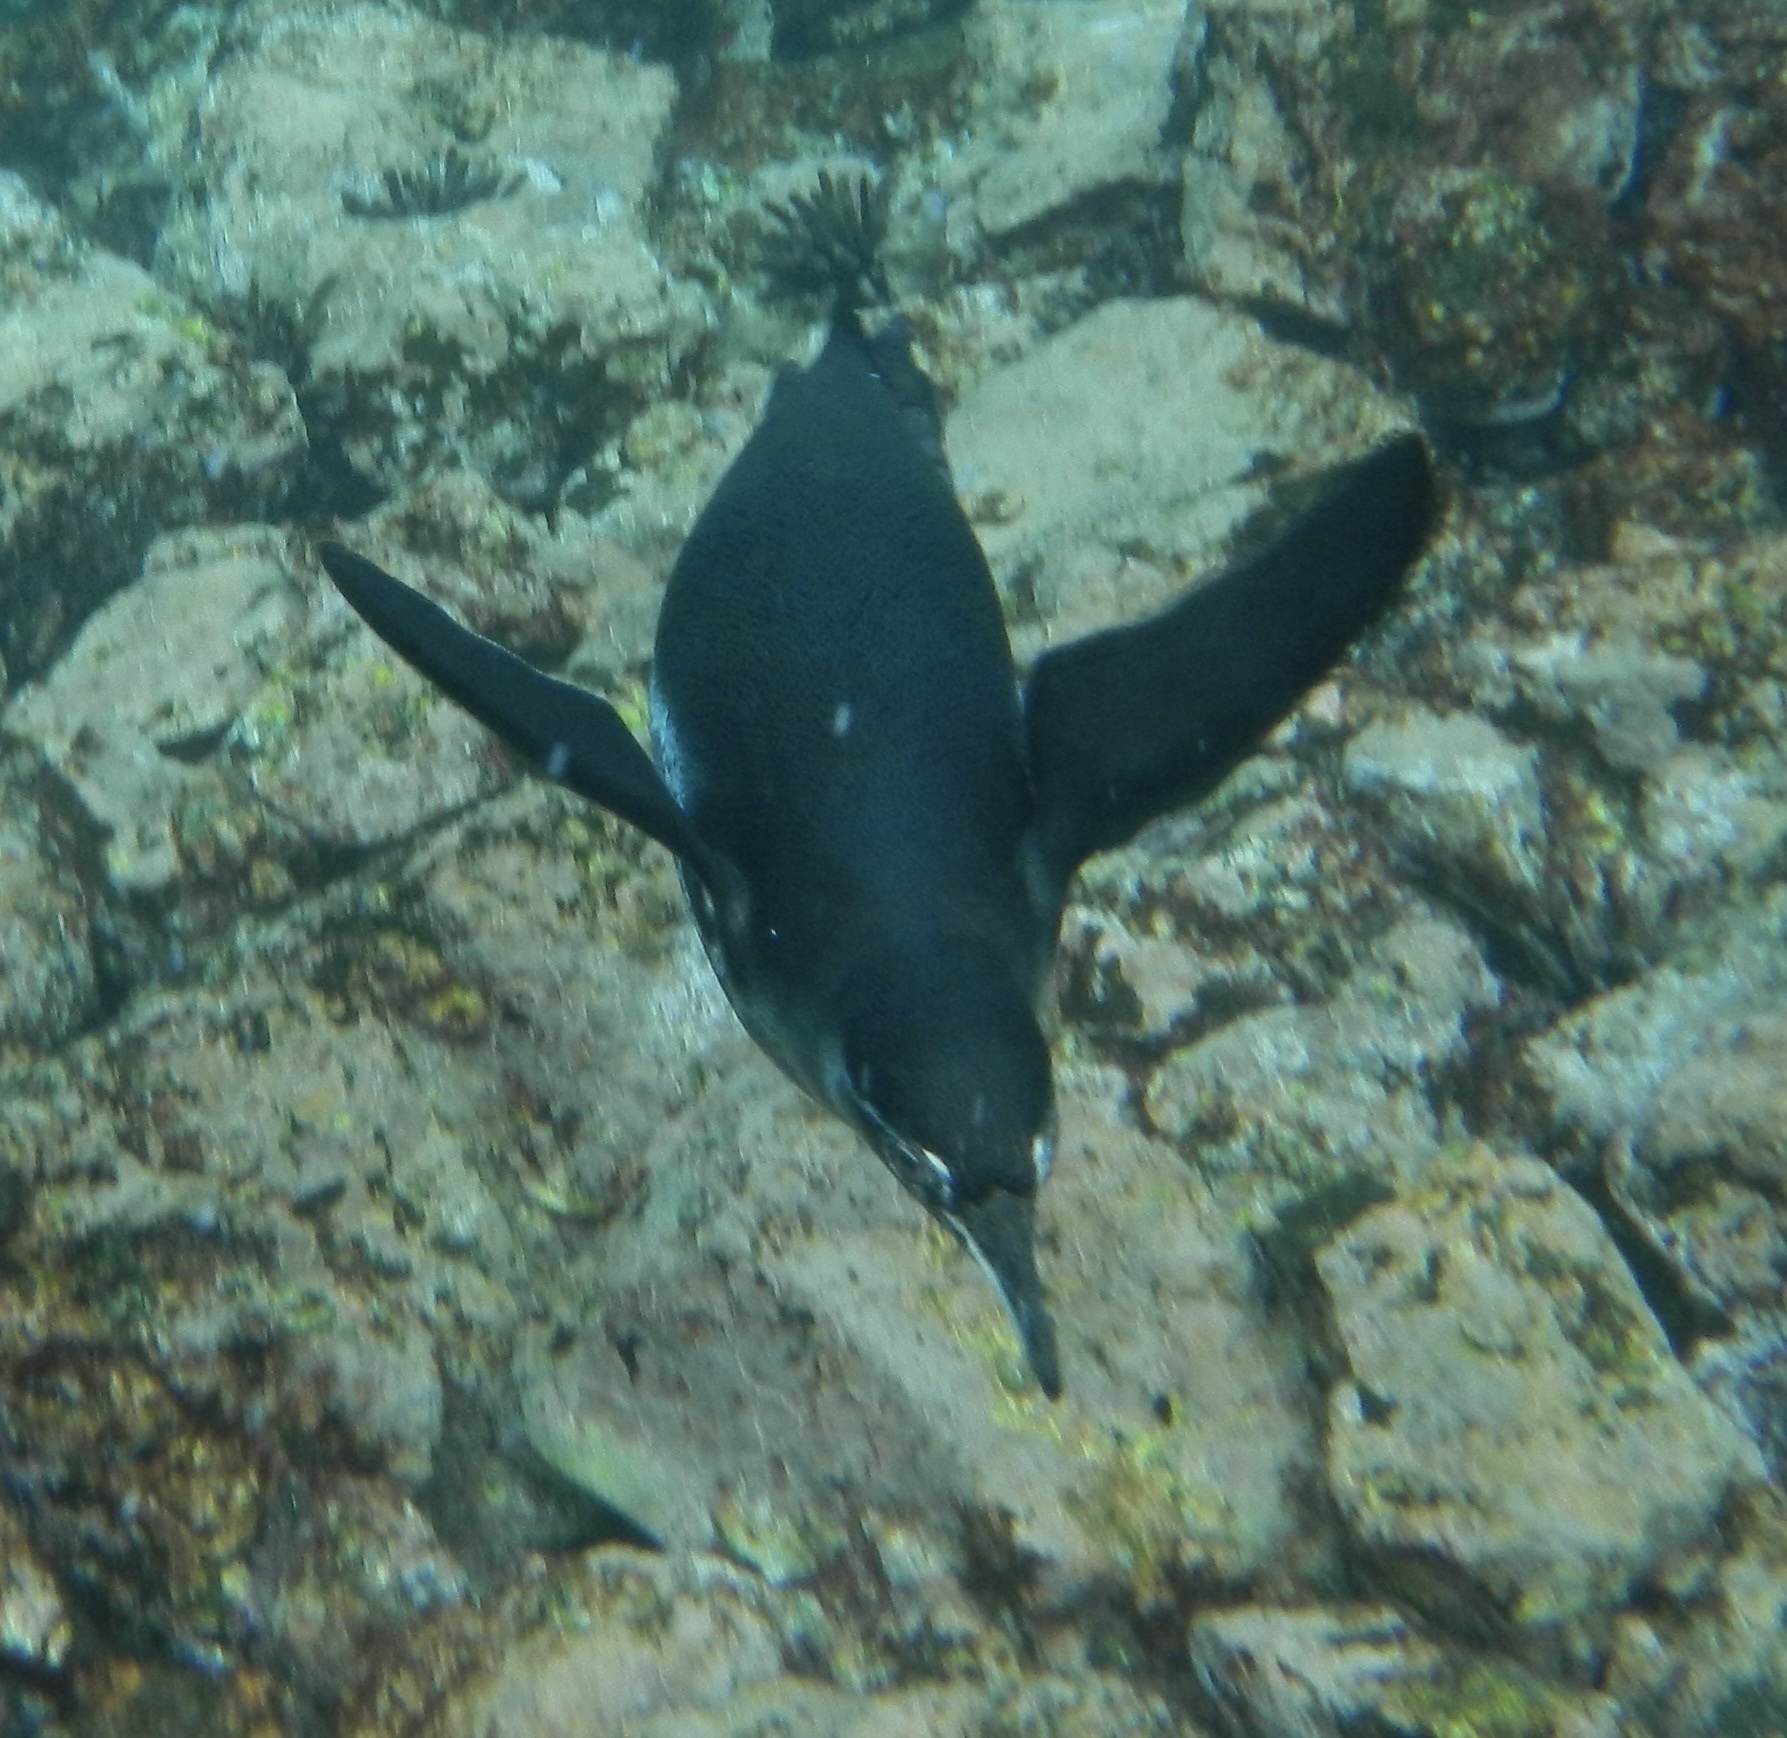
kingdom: Animalia
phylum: Chordata
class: Aves
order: Sphenisciformes
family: Spheniscidae
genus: Spheniscus
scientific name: Spheniscus mendiculus
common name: Galapagos penguin
